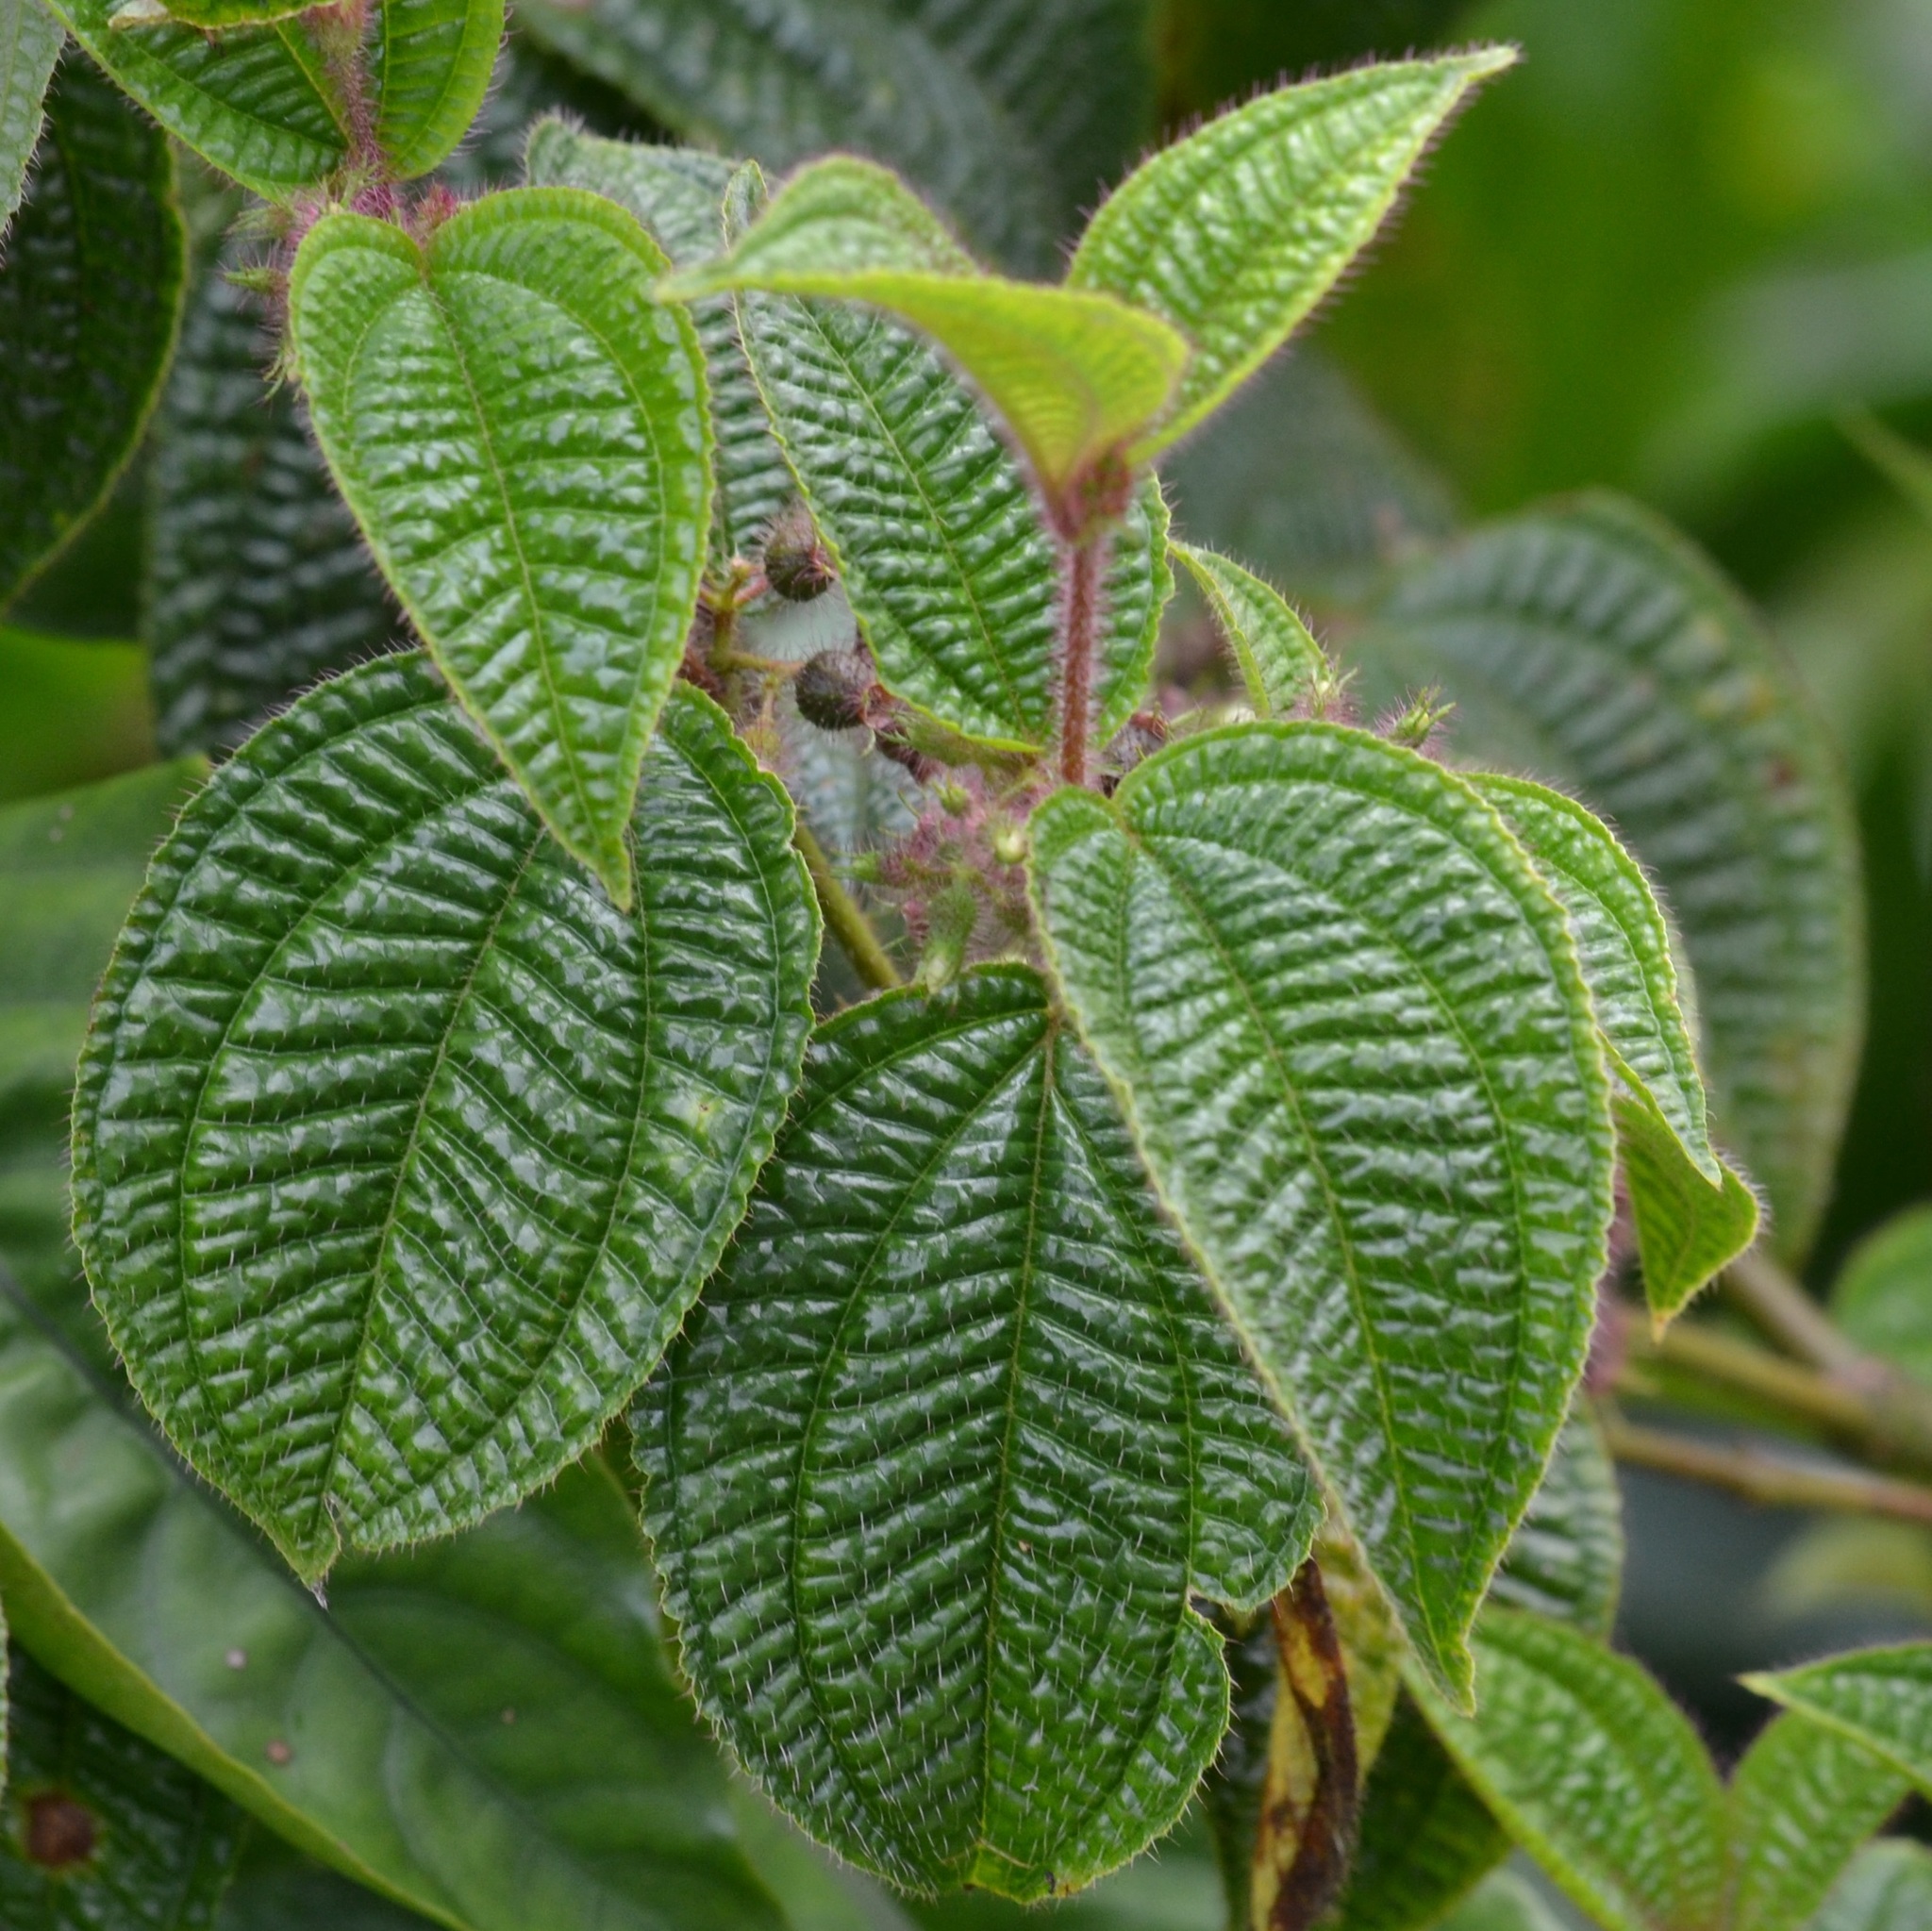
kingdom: Plantae
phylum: Tracheophyta
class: Magnoliopsida
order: Myrtales
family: Melastomataceae
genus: Miconia
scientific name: Miconia crenata
